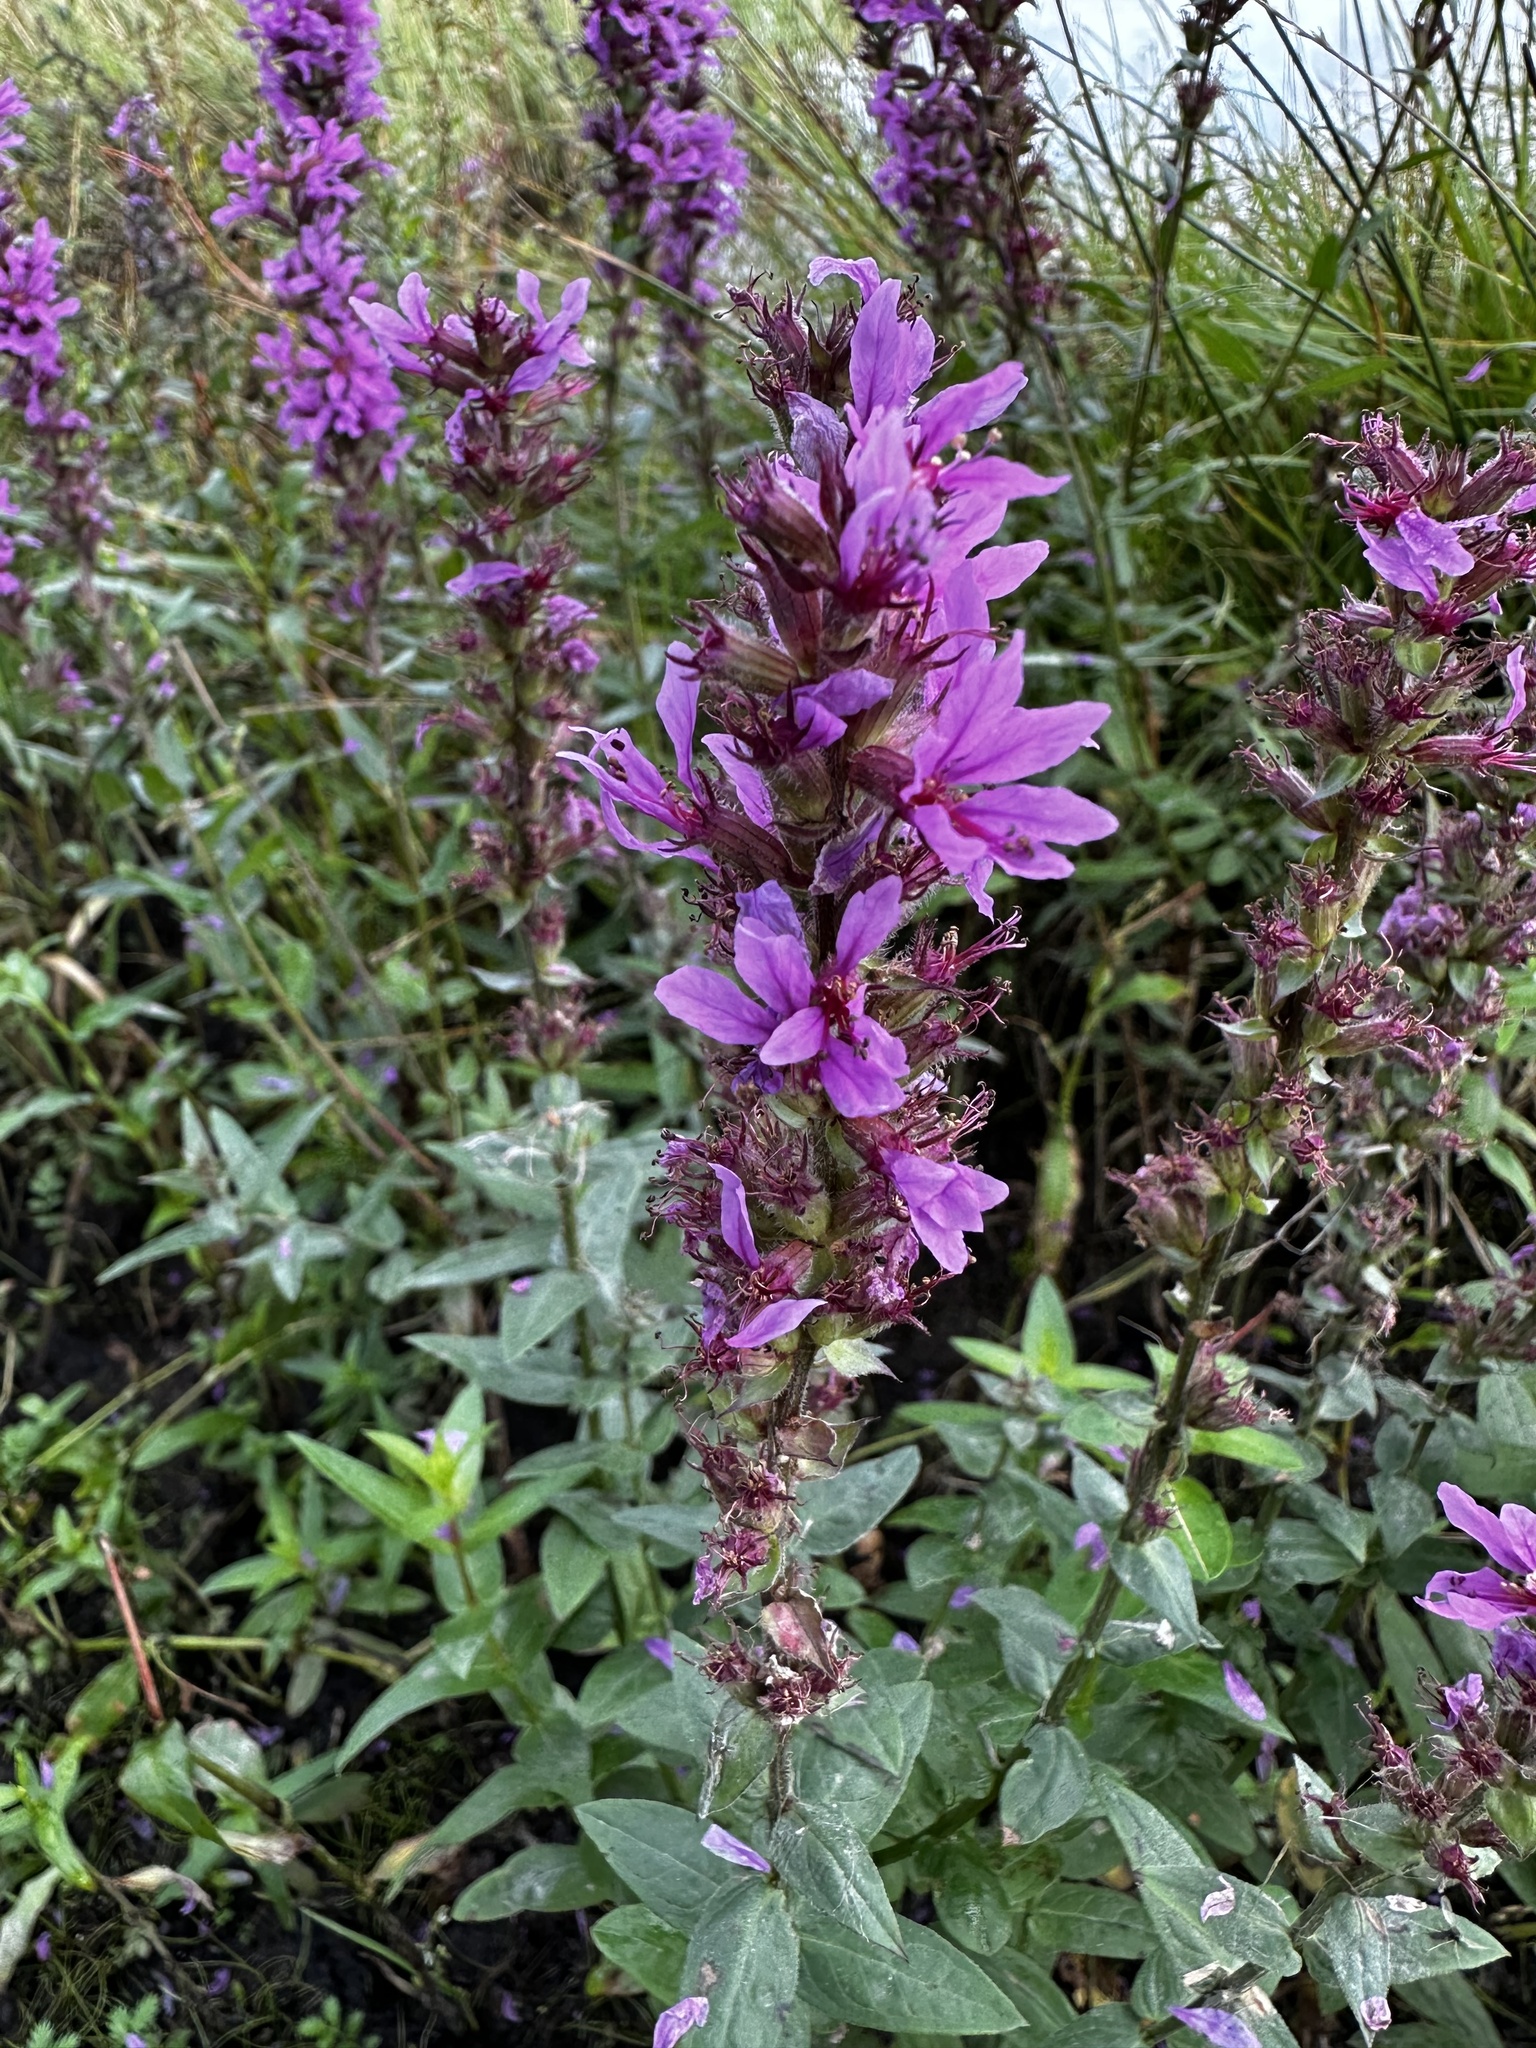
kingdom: Plantae
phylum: Tracheophyta
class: Magnoliopsida
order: Myrtales
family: Lythraceae
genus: Lythrum
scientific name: Lythrum salicaria
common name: Purple loosestrife
